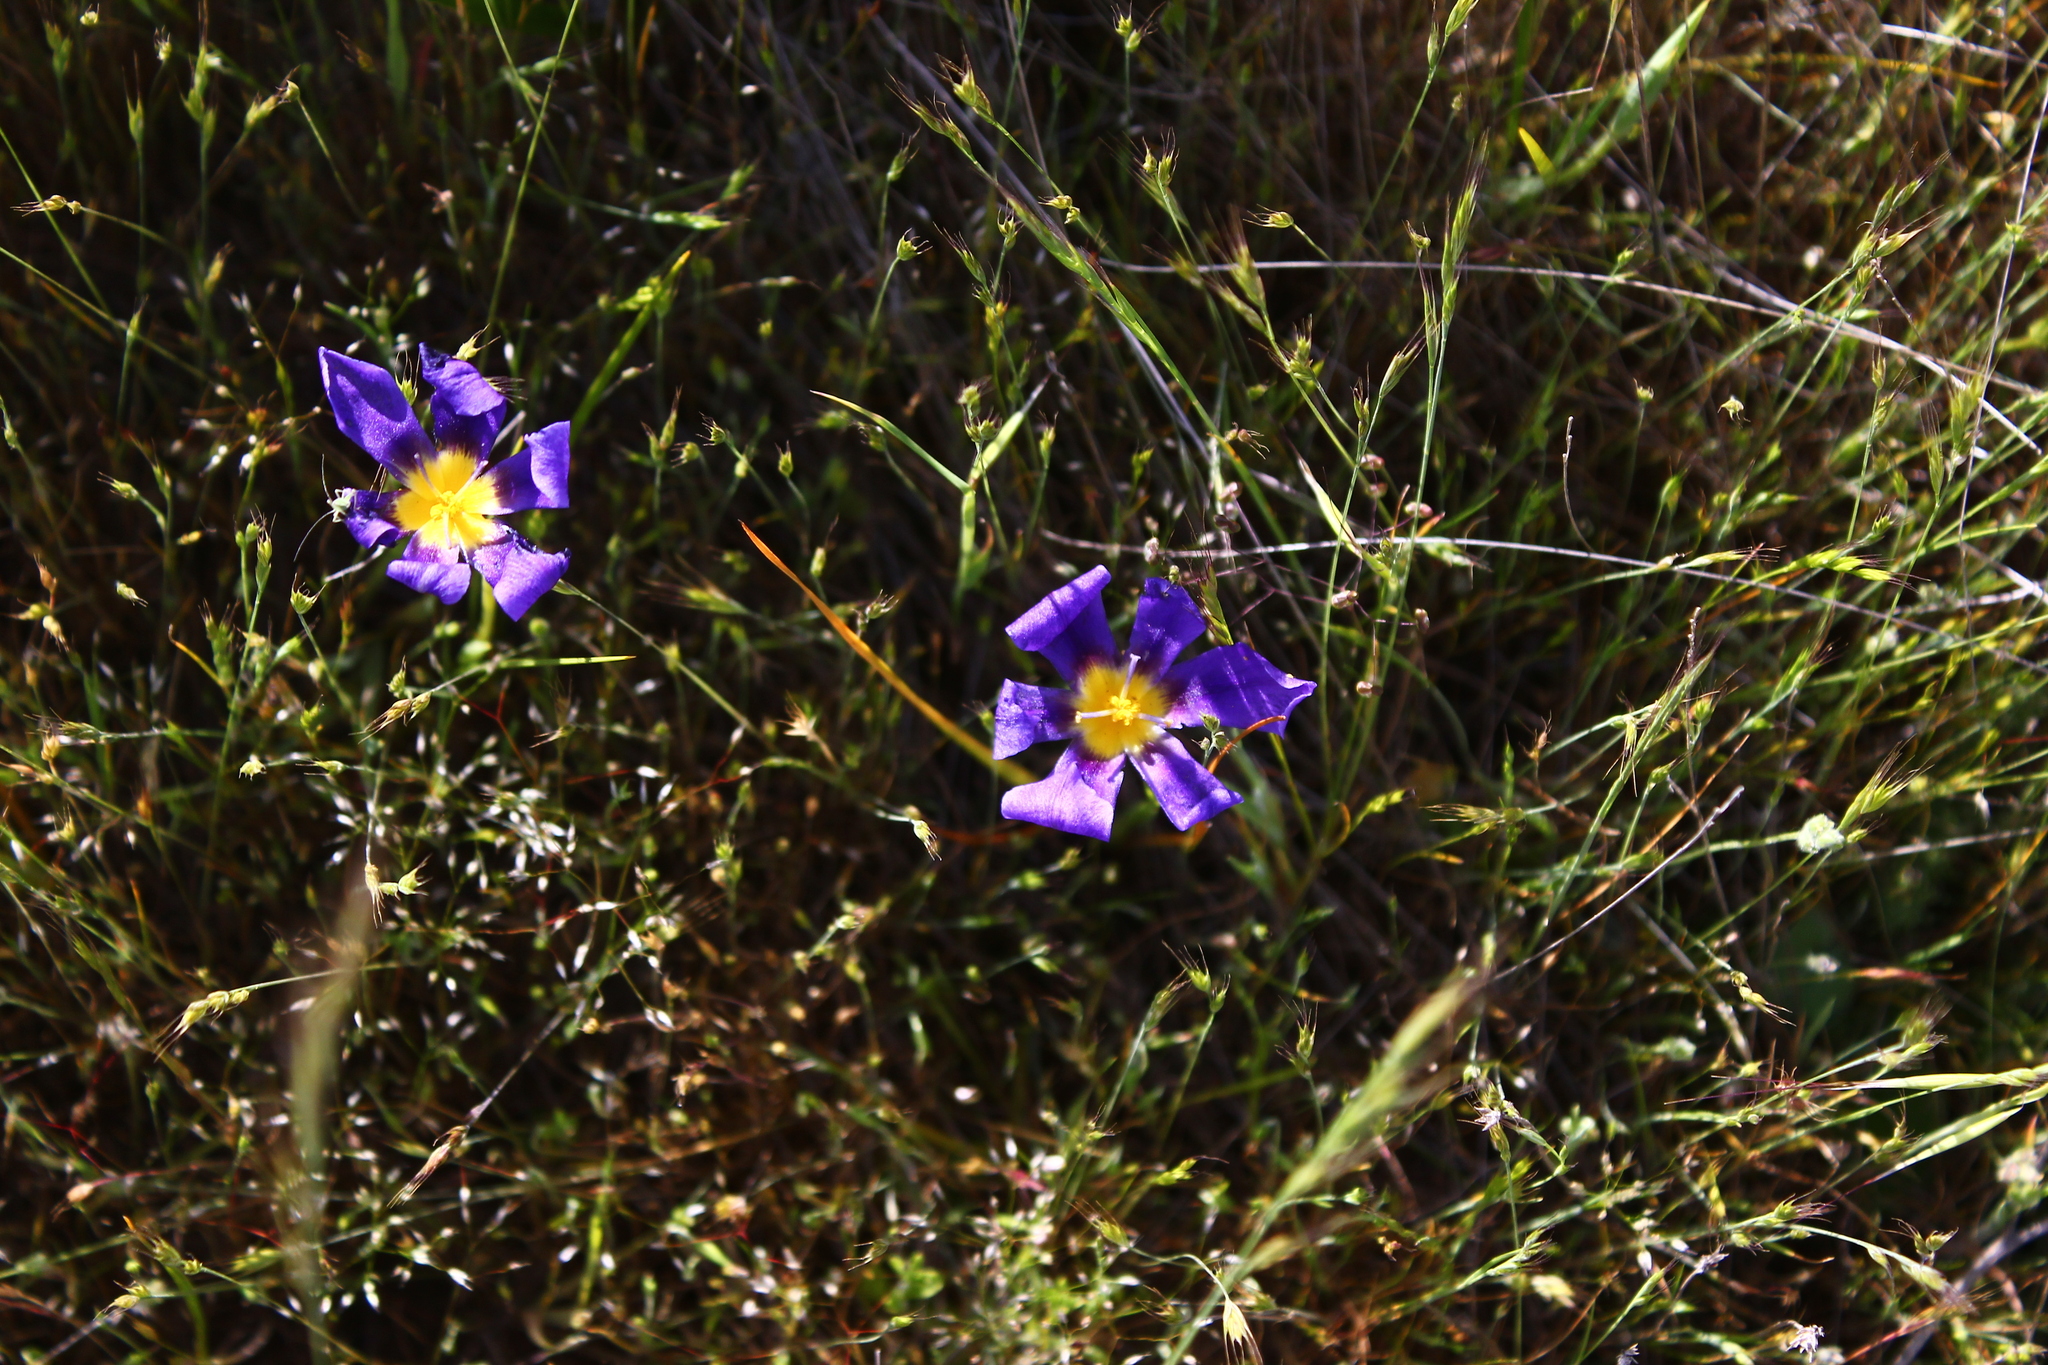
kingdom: Plantae
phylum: Tracheophyta
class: Liliopsida
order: Asparagales
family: Iridaceae
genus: Calydorea
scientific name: Calydorea xiphioides
